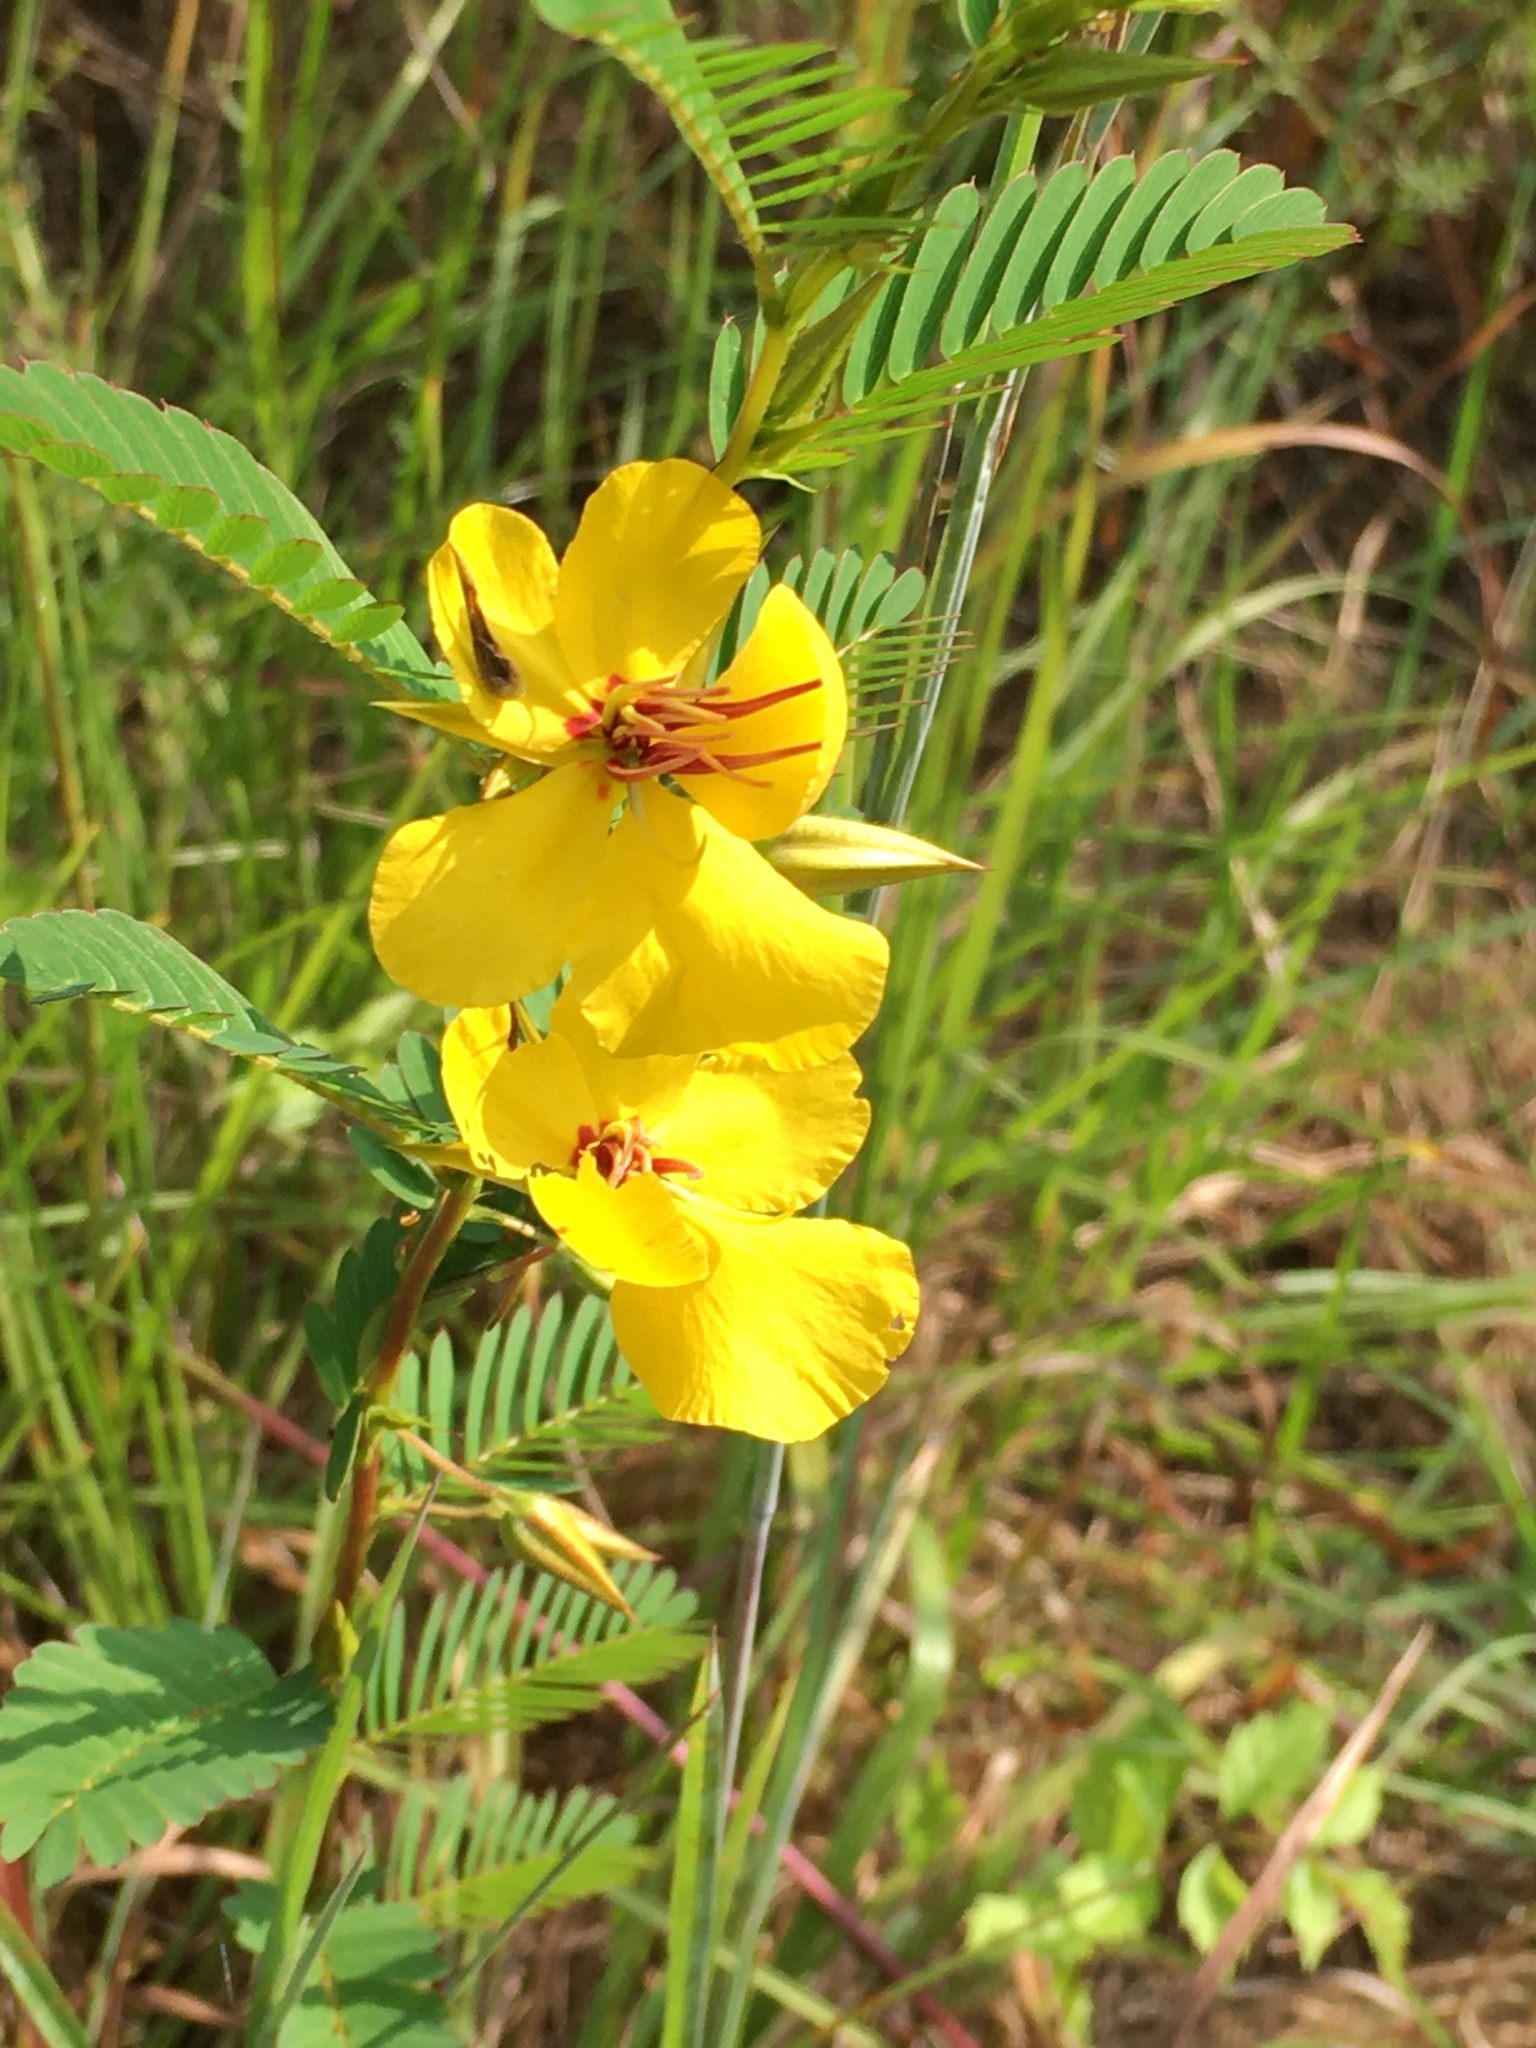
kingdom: Plantae
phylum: Tracheophyta
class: Magnoliopsida
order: Fabales
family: Fabaceae
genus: Chamaecrista
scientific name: Chamaecrista fasciculata
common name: Golden cassia
